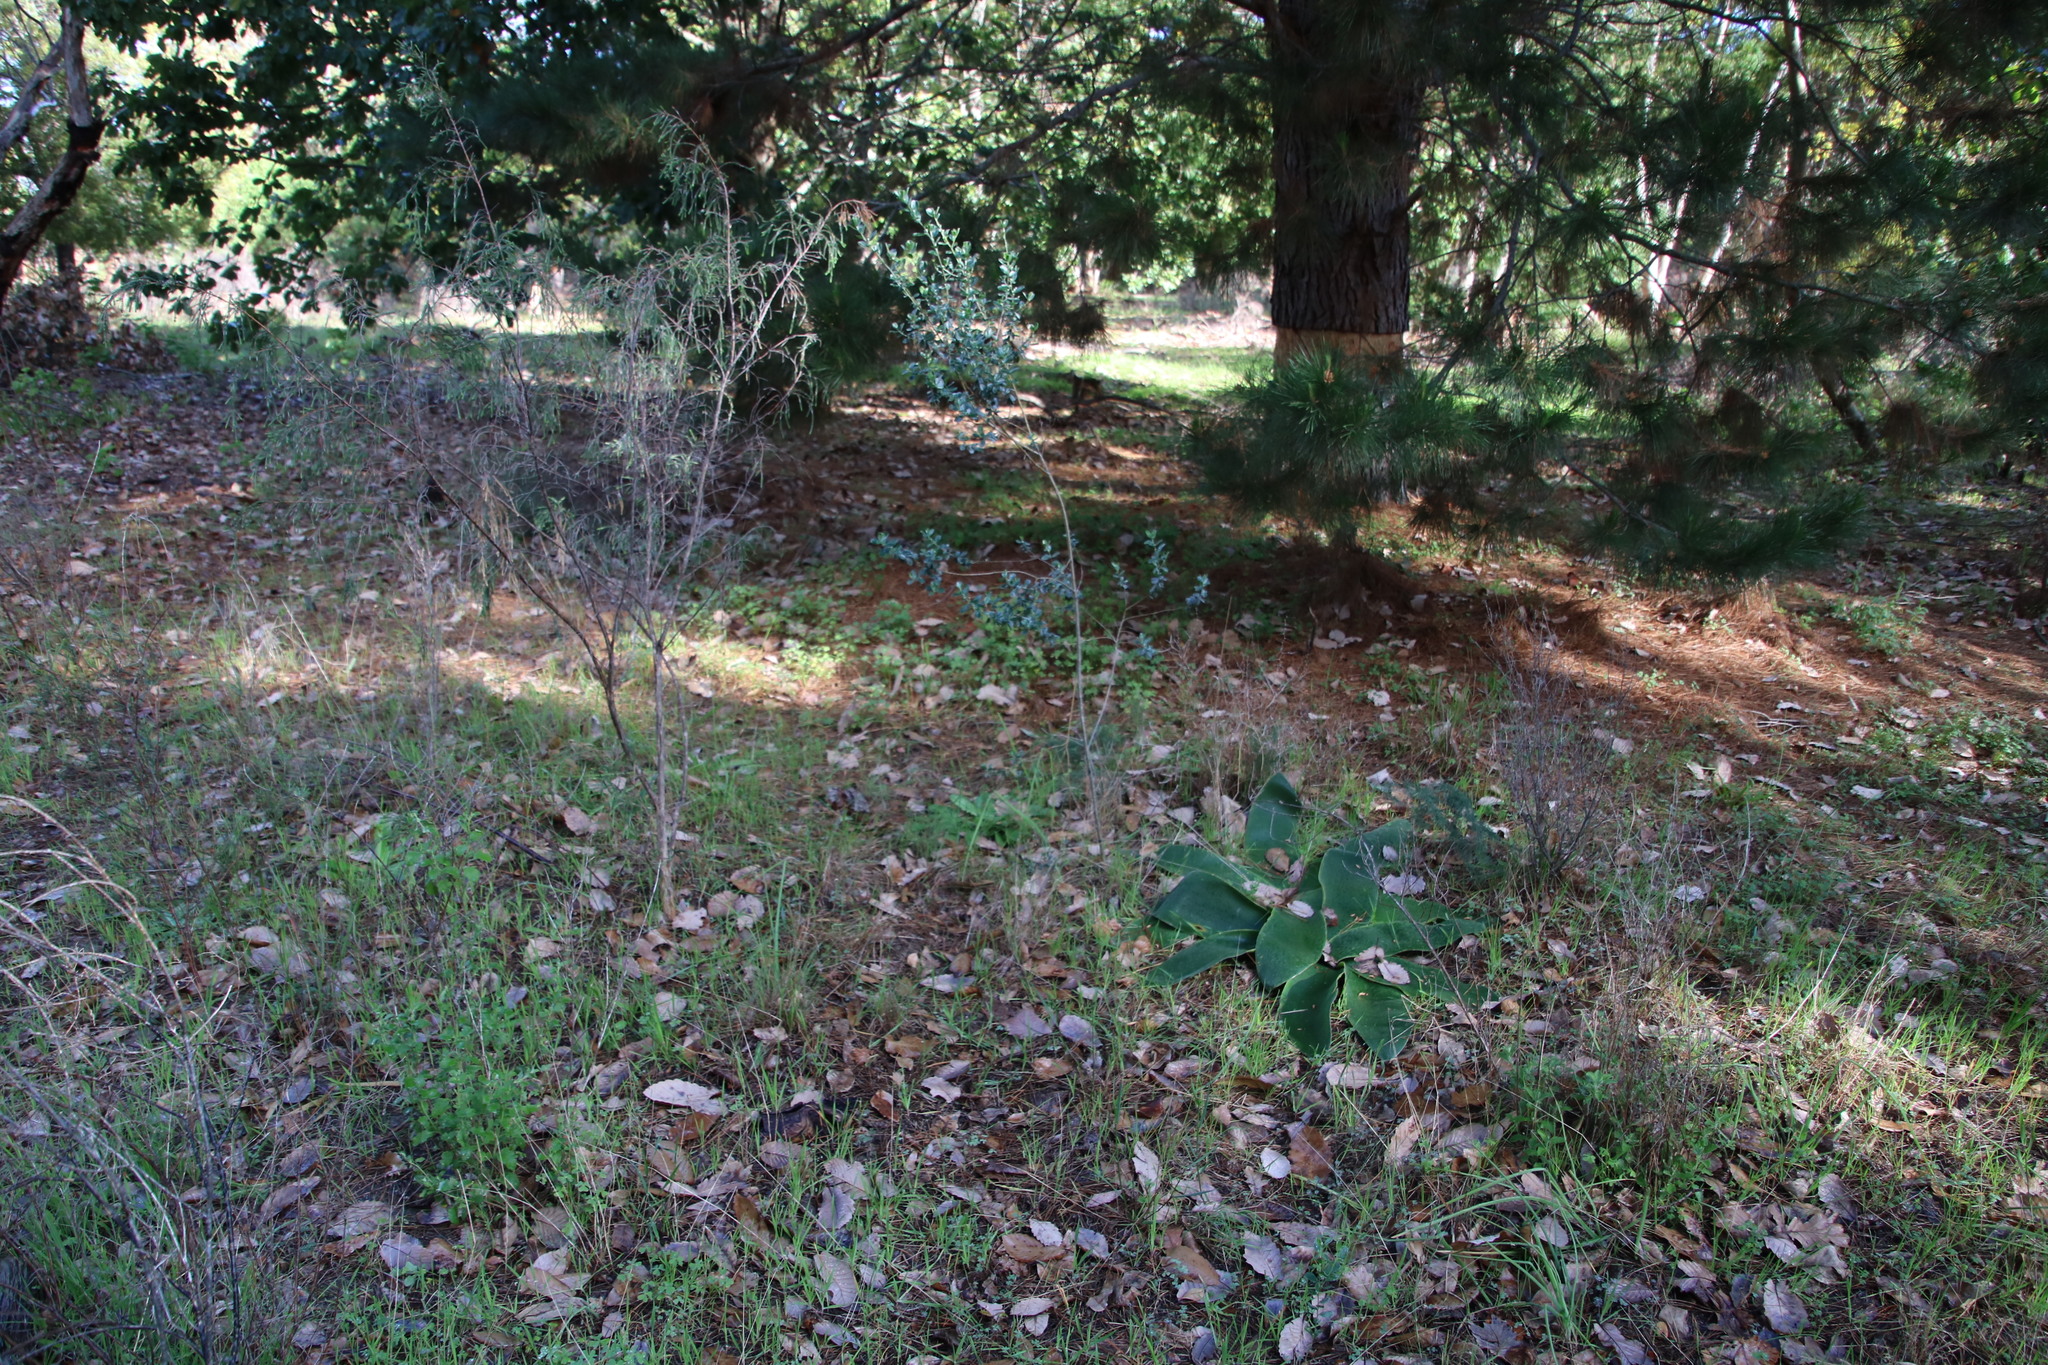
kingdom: Plantae
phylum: Tracheophyta
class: Magnoliopsida
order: Fabales
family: Fabaceae
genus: Podalyria
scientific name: Podalyria myrtillifolia
